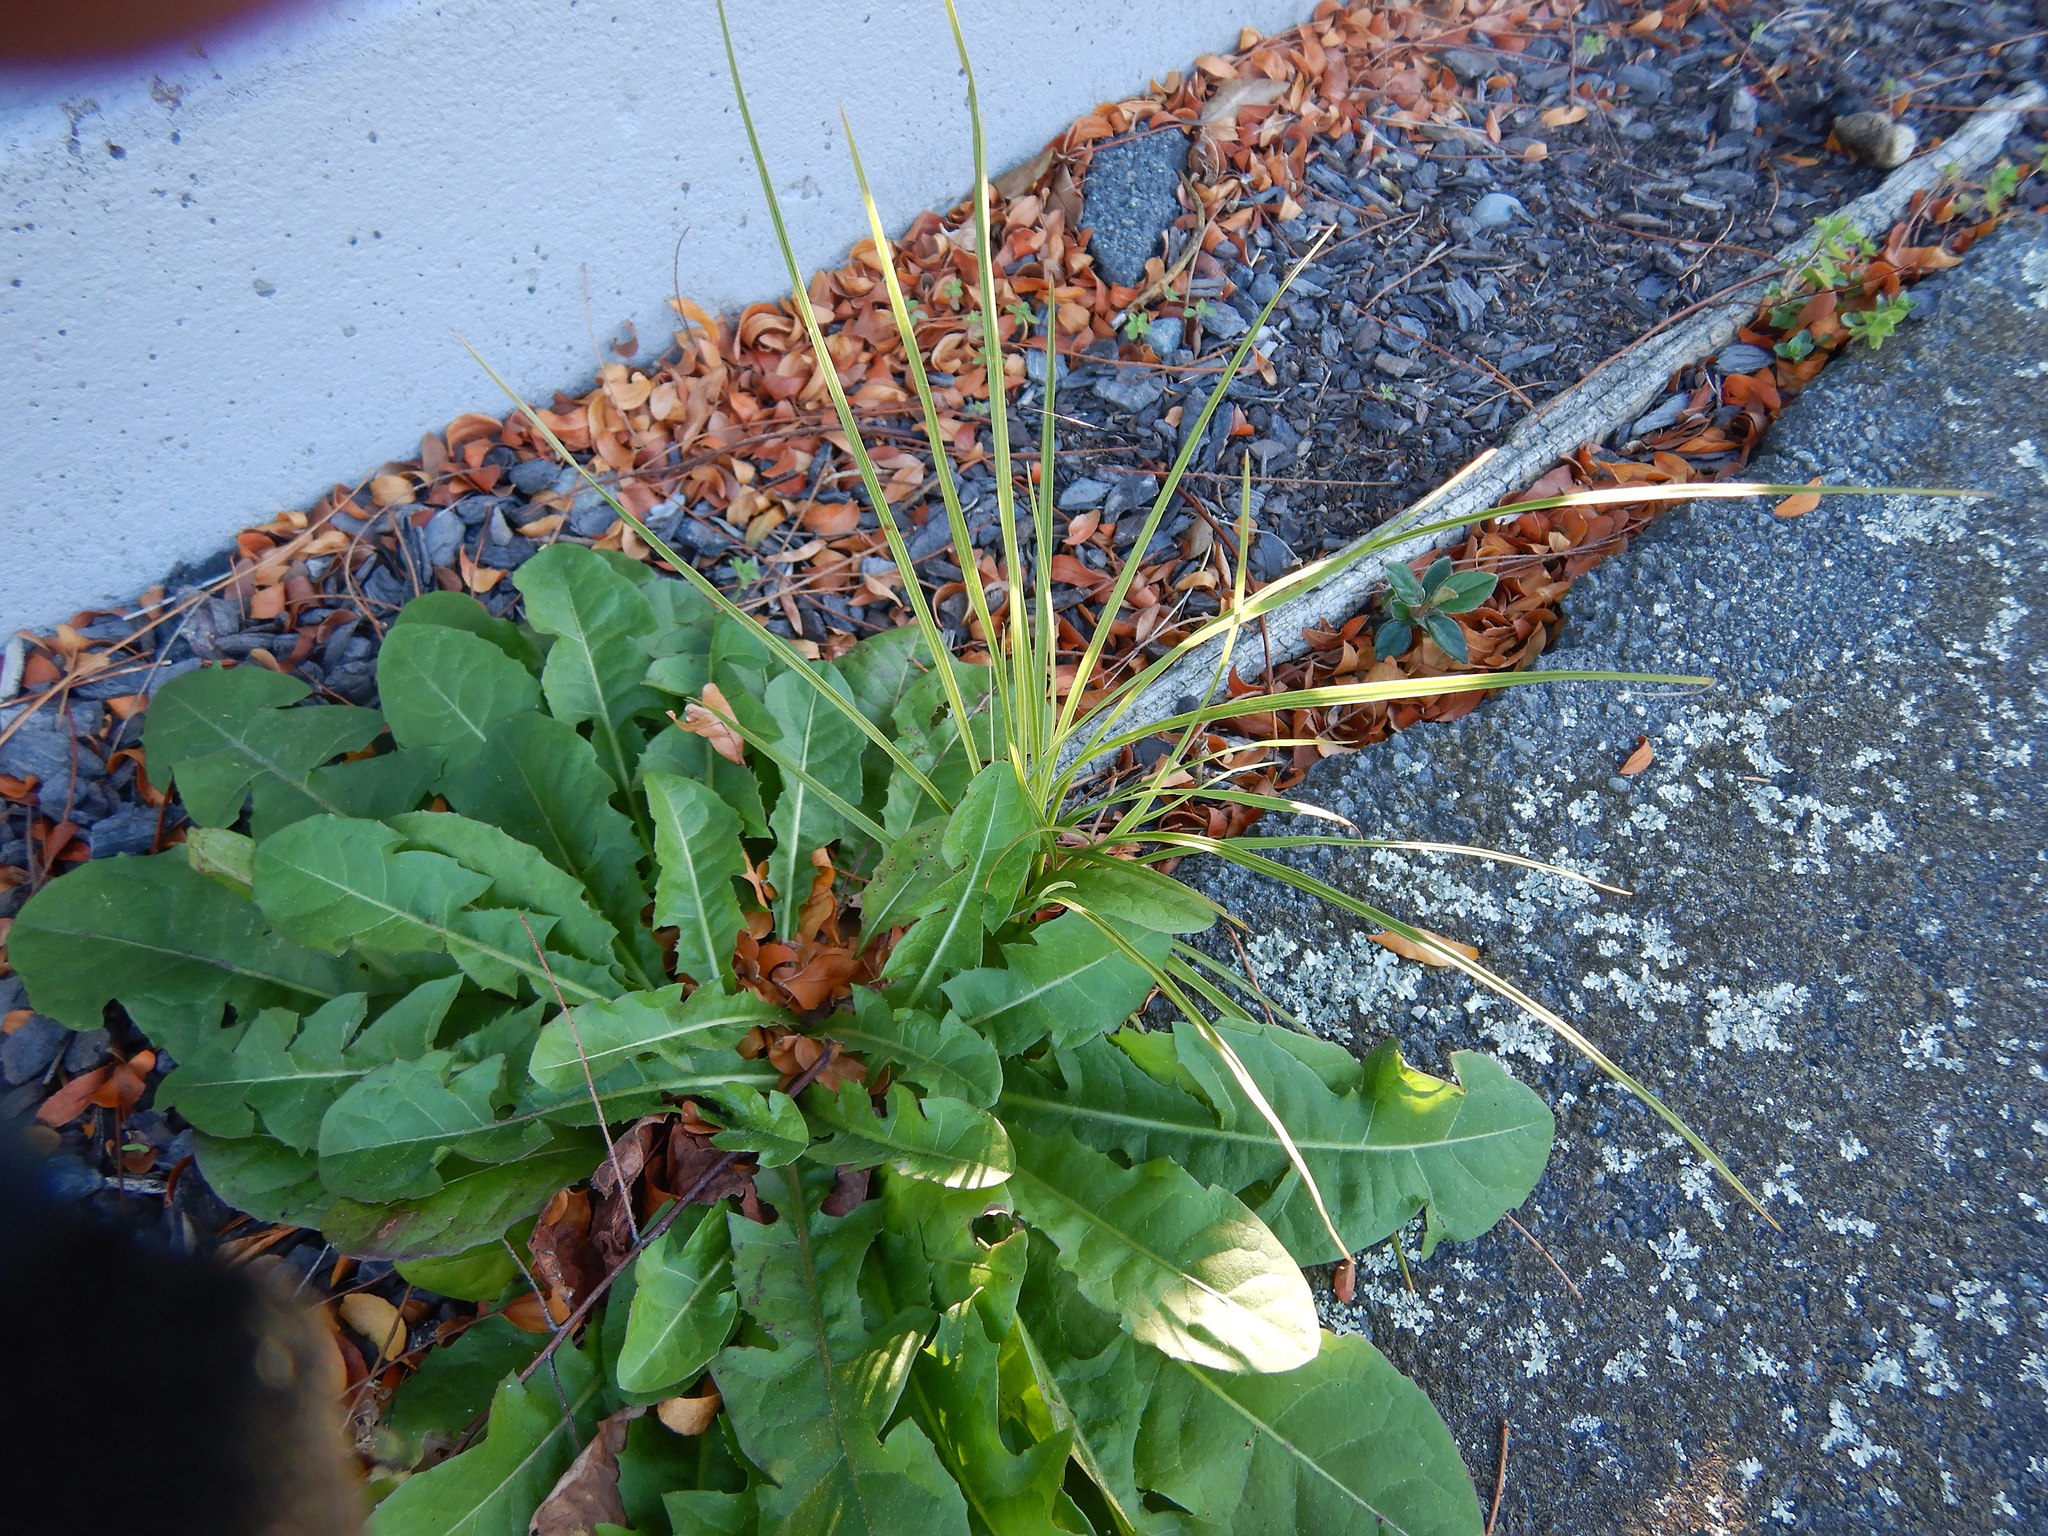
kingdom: Plantae
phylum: Tracheophyta
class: Liliopsida
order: Asparagales
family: Asparagaceae
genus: Cordyline
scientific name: Cordyline australis
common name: Cabbage-palm
